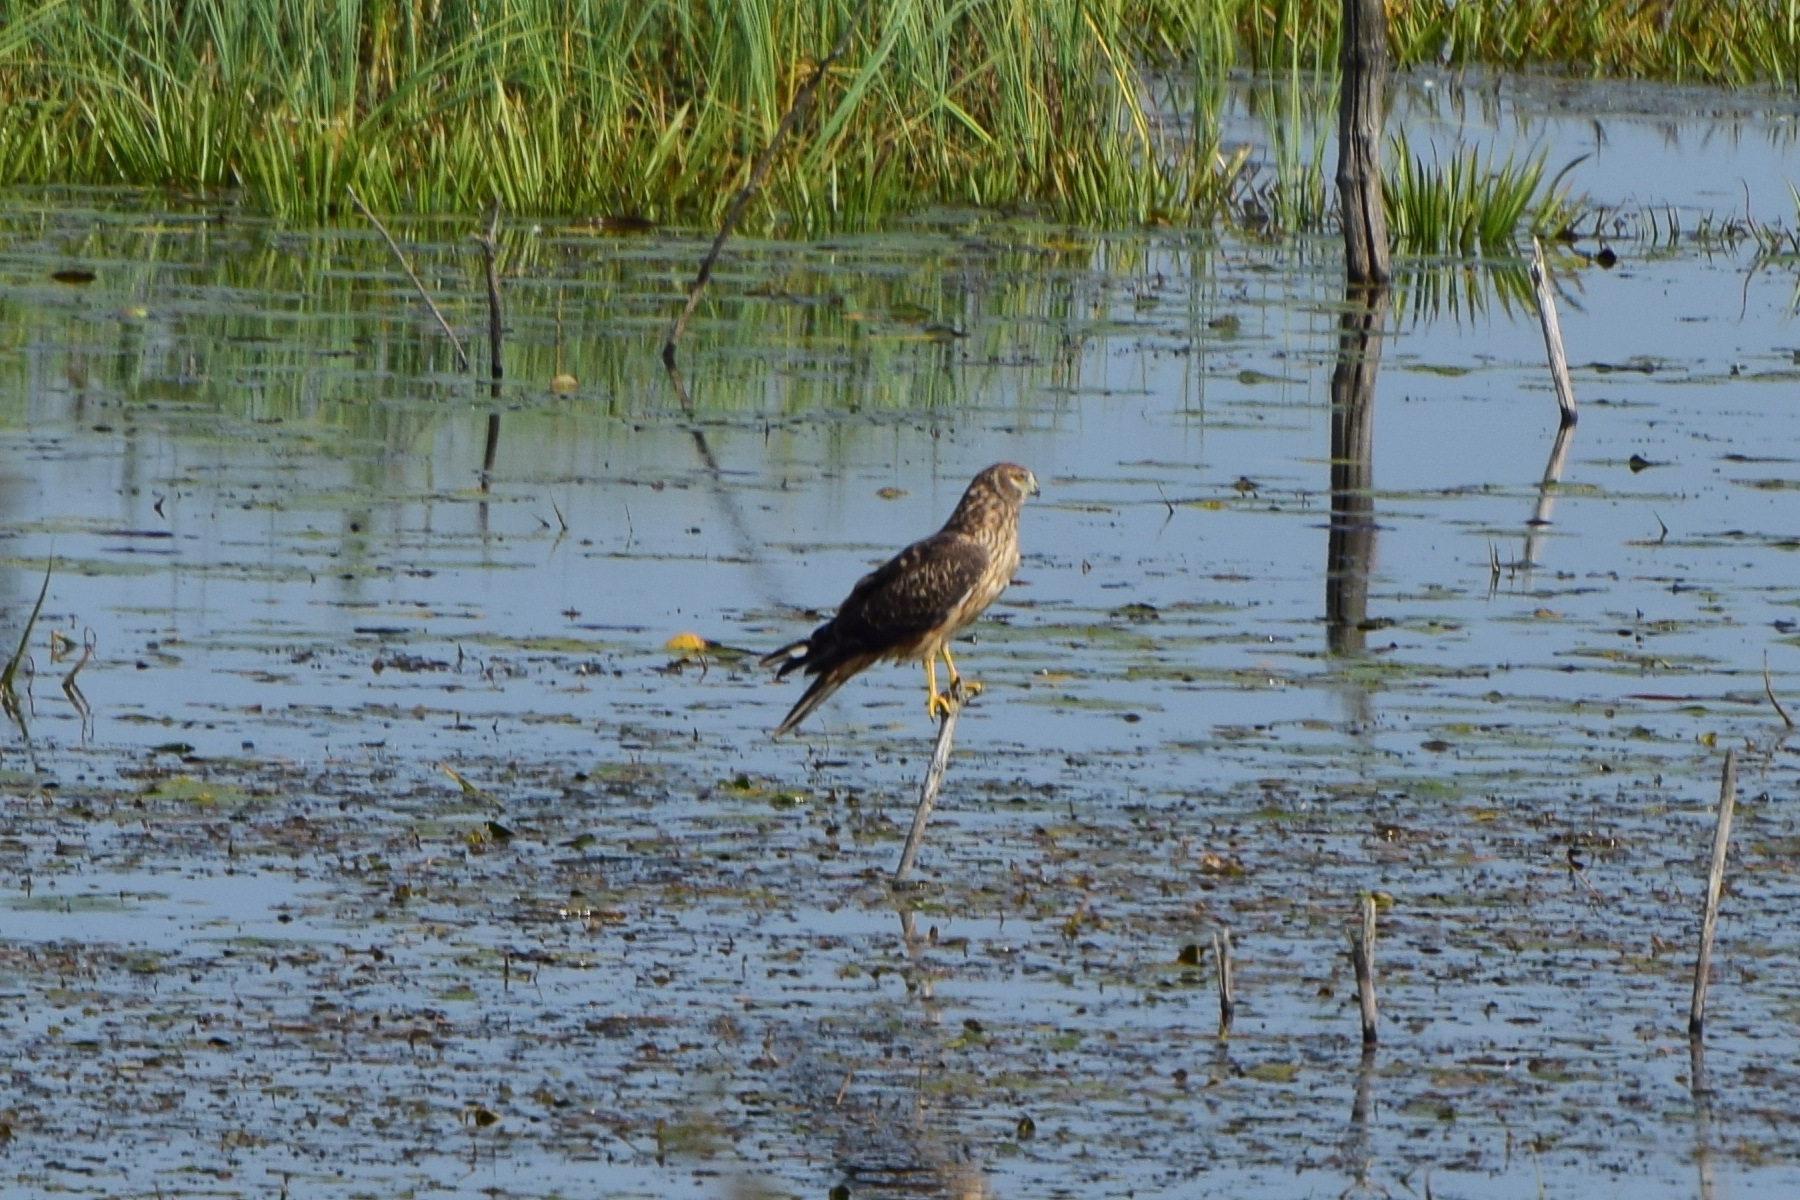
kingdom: Animalia
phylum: Chordata
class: Aves
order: Accipitriformes
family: Accipitridae
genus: Circus
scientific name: Circus cyaneus
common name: Hen harrier
